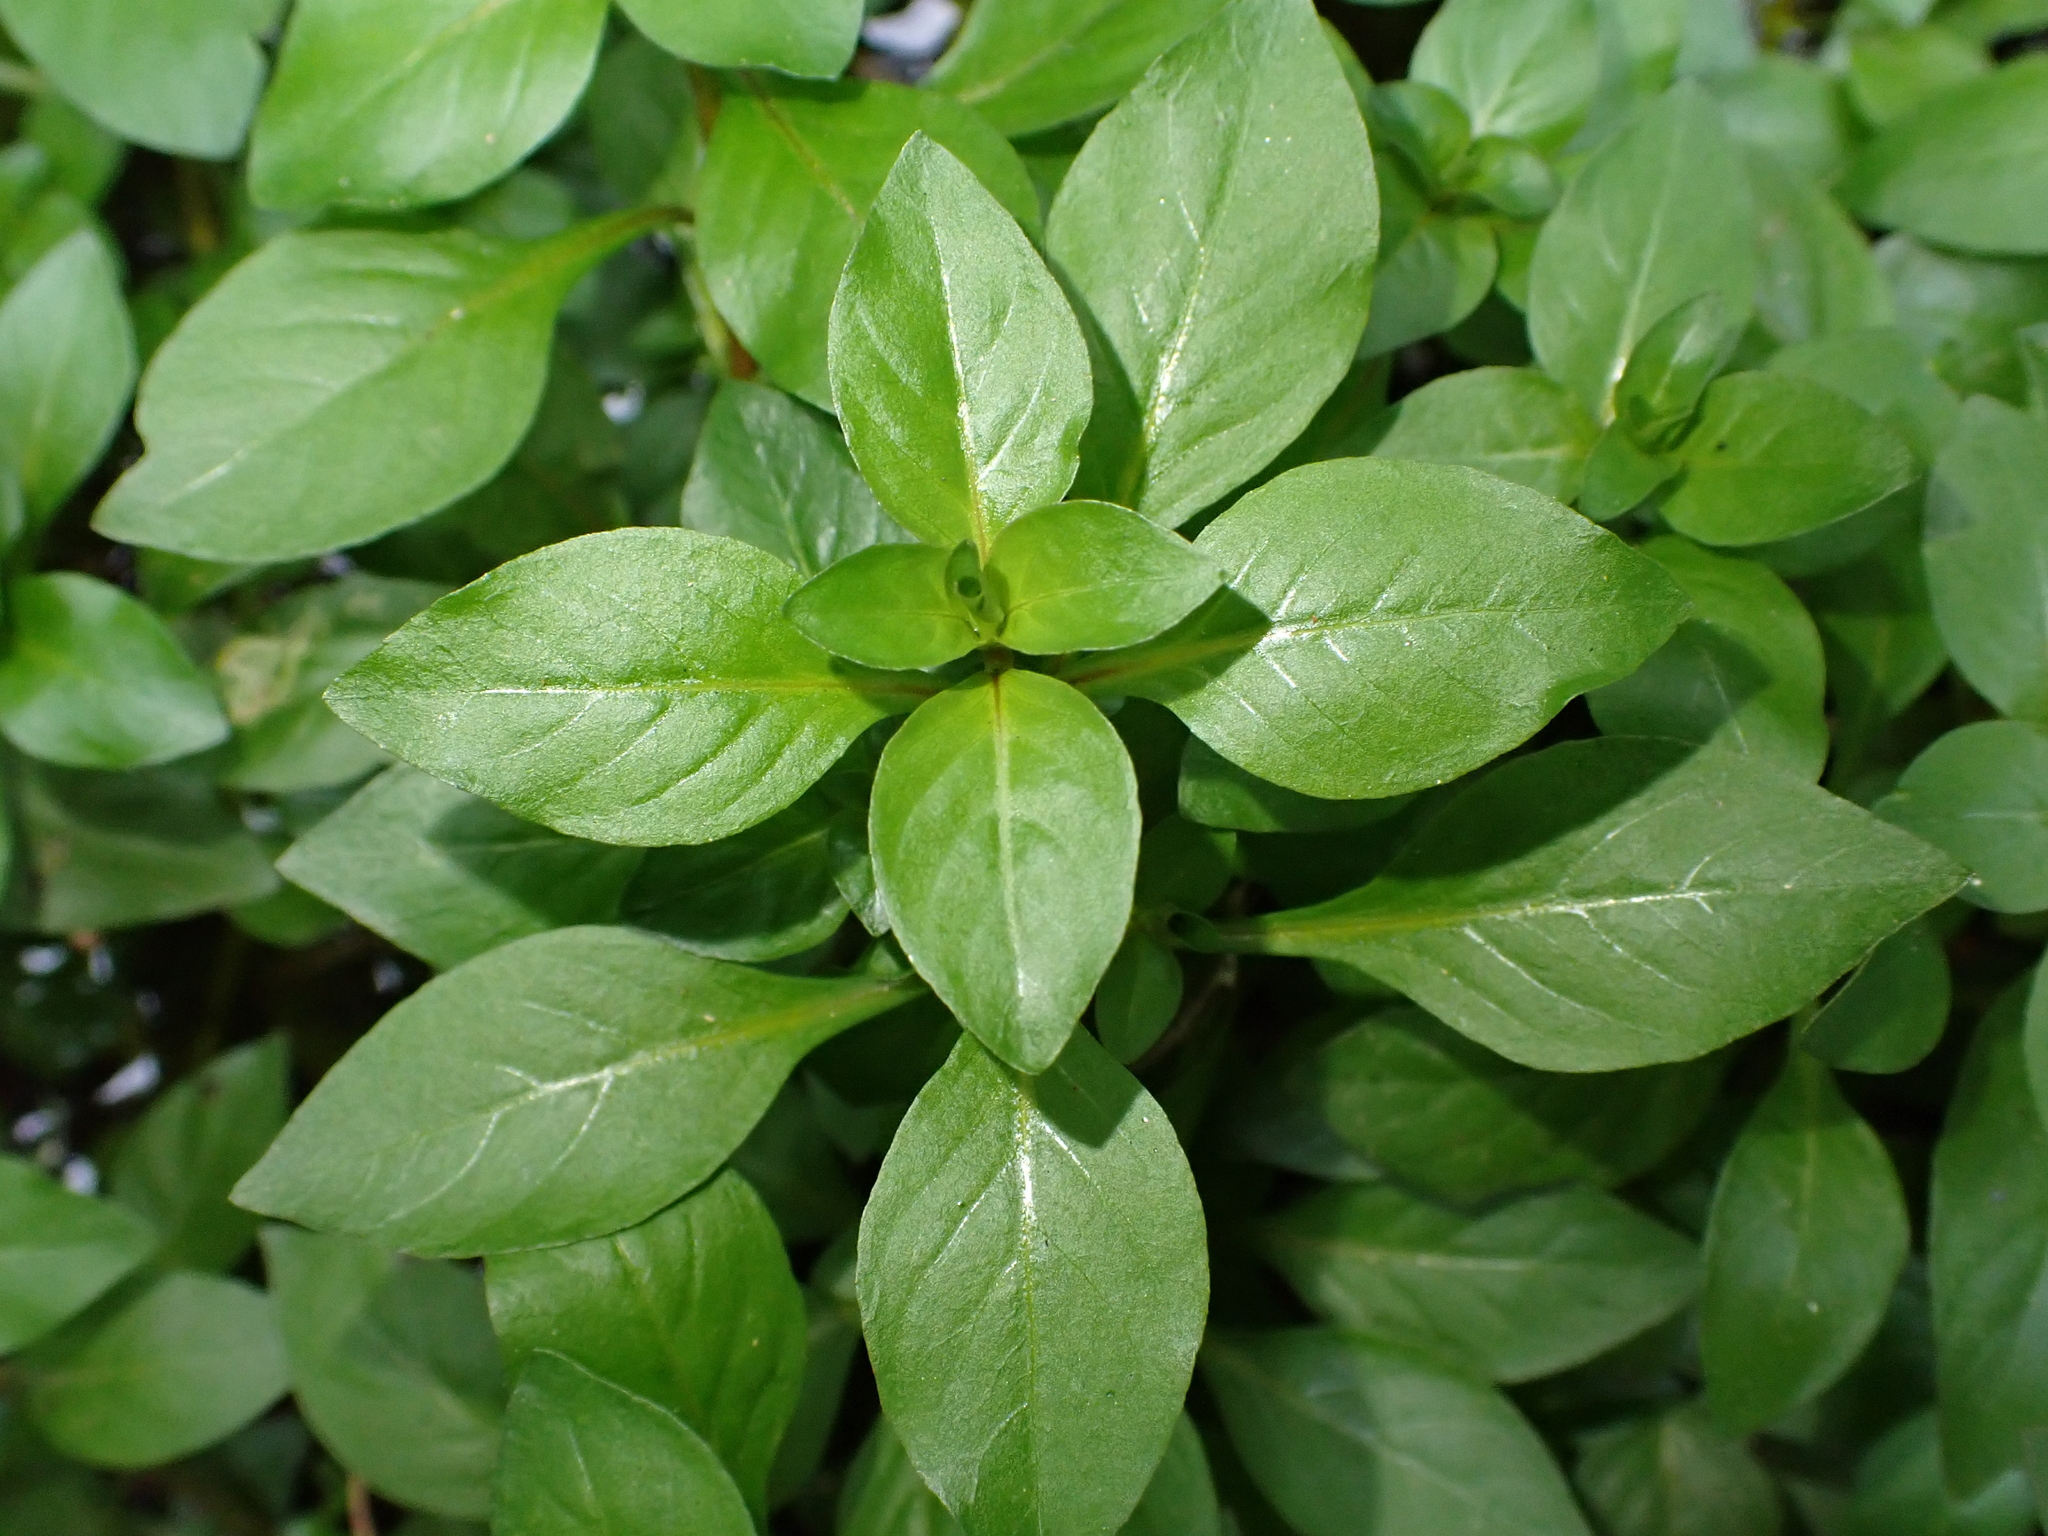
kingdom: Plantae
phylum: Tracheophyta
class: Magnoliopsida
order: Myrtales
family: Onagraceae
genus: Ludwigia
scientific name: Ludwigia palustris
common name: Hampshire-purslane
